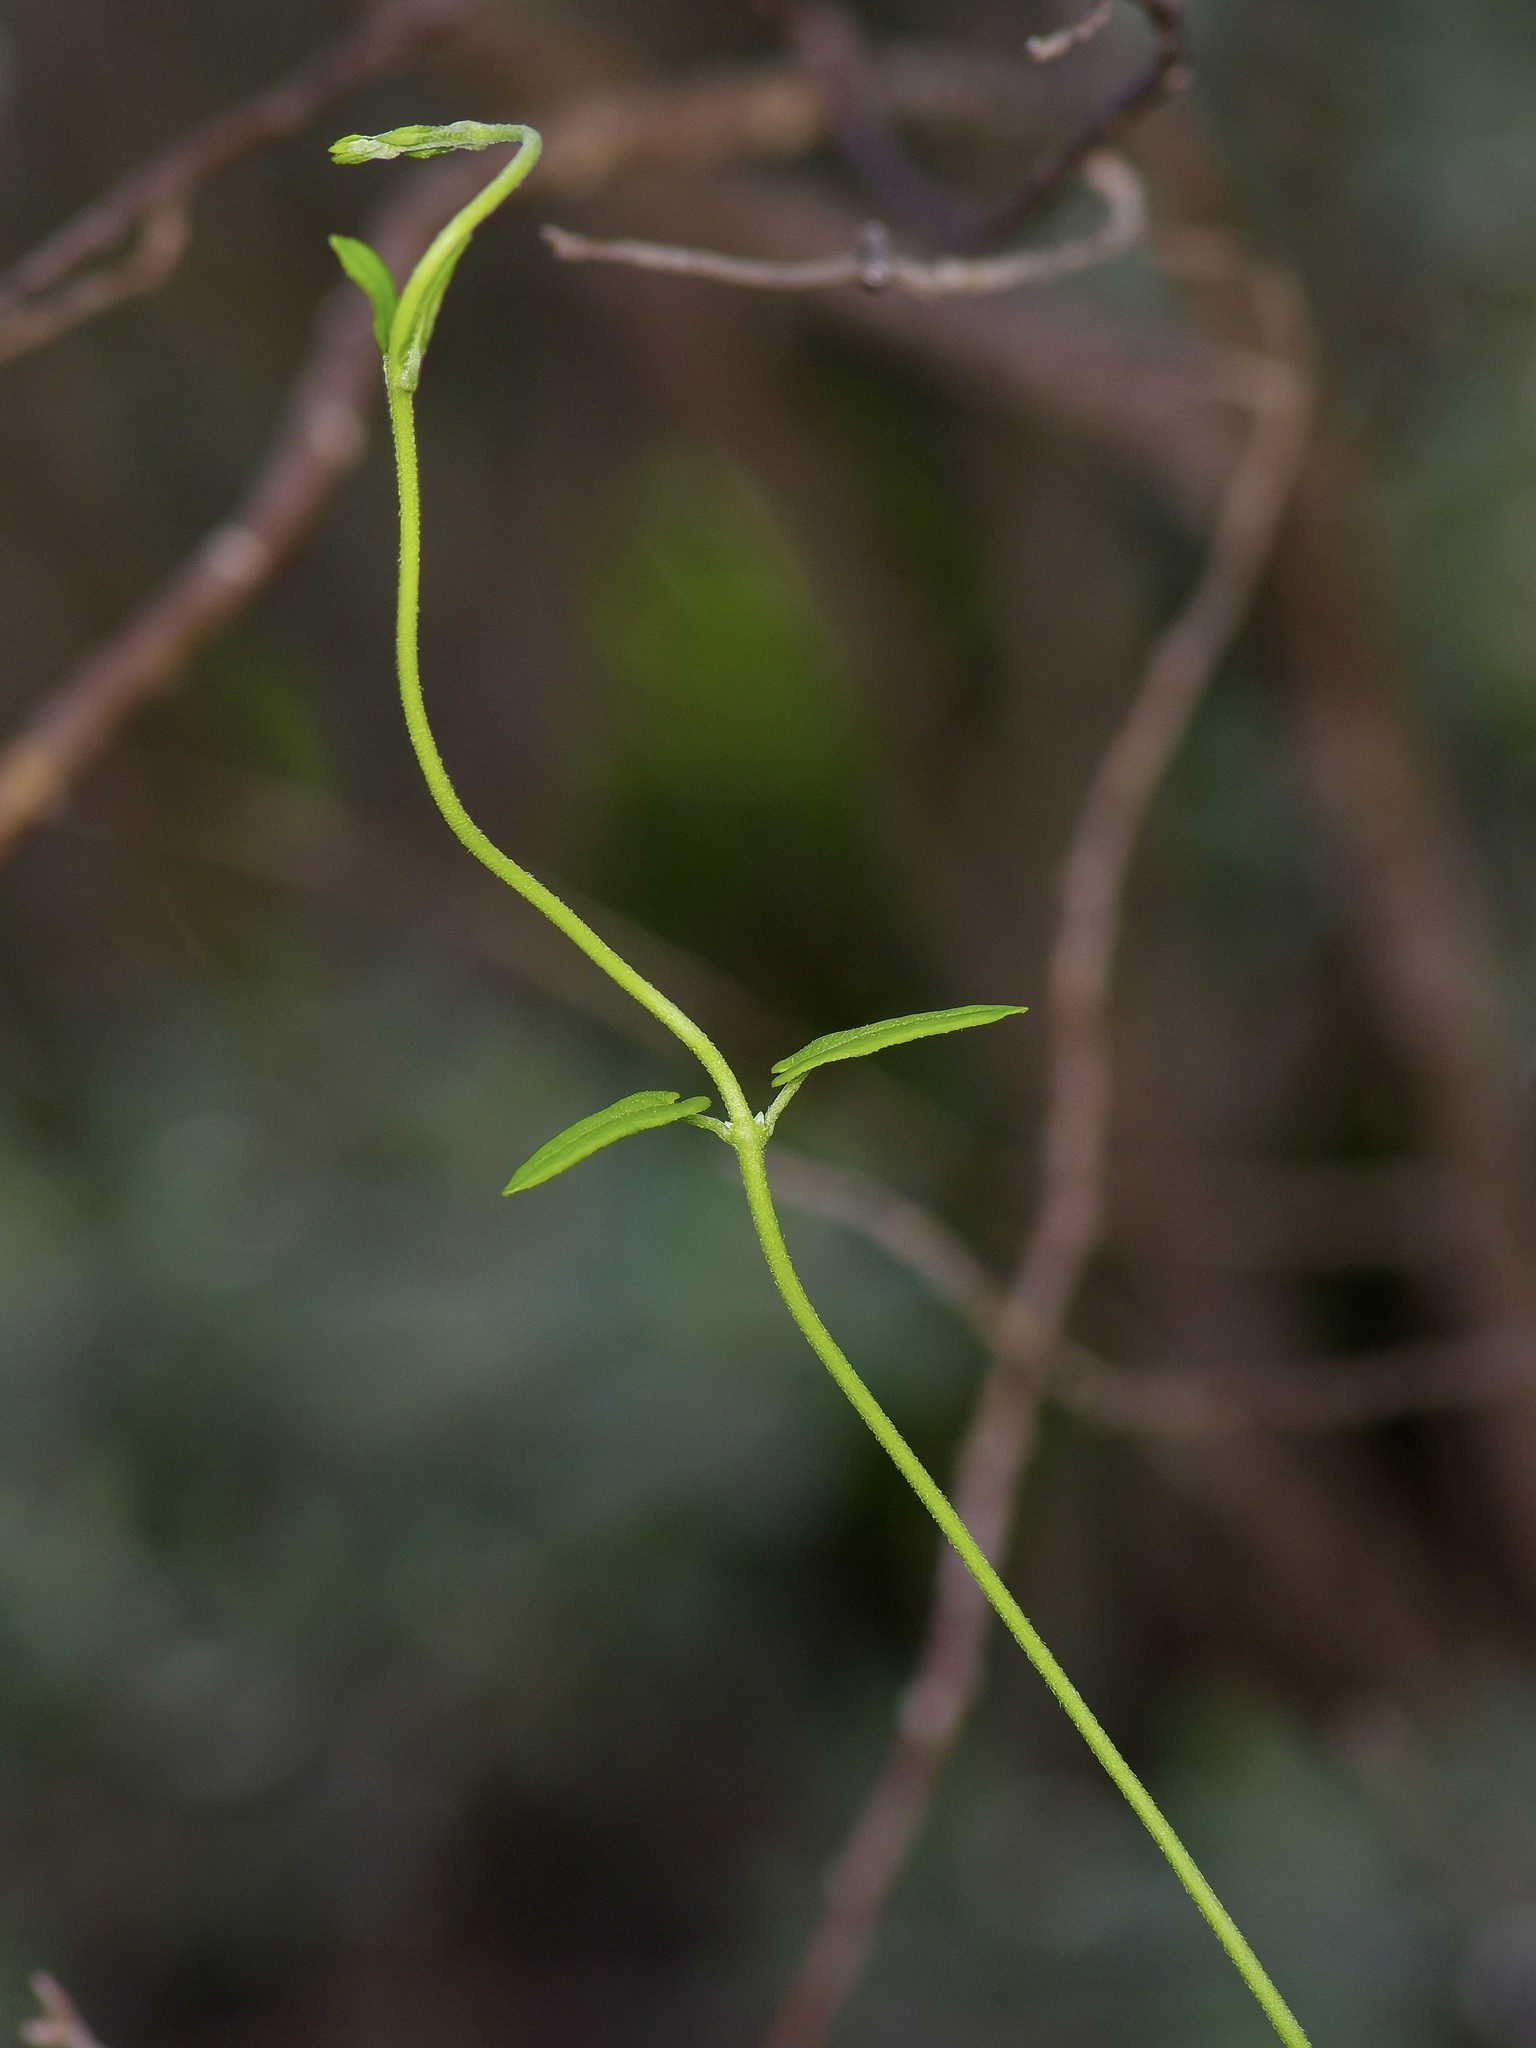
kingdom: Plantae
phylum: Tracheophyta
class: Magnoliopsida
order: Gentianales
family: Apocynaceae
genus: Matelea
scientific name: Matelea sagittifolia
